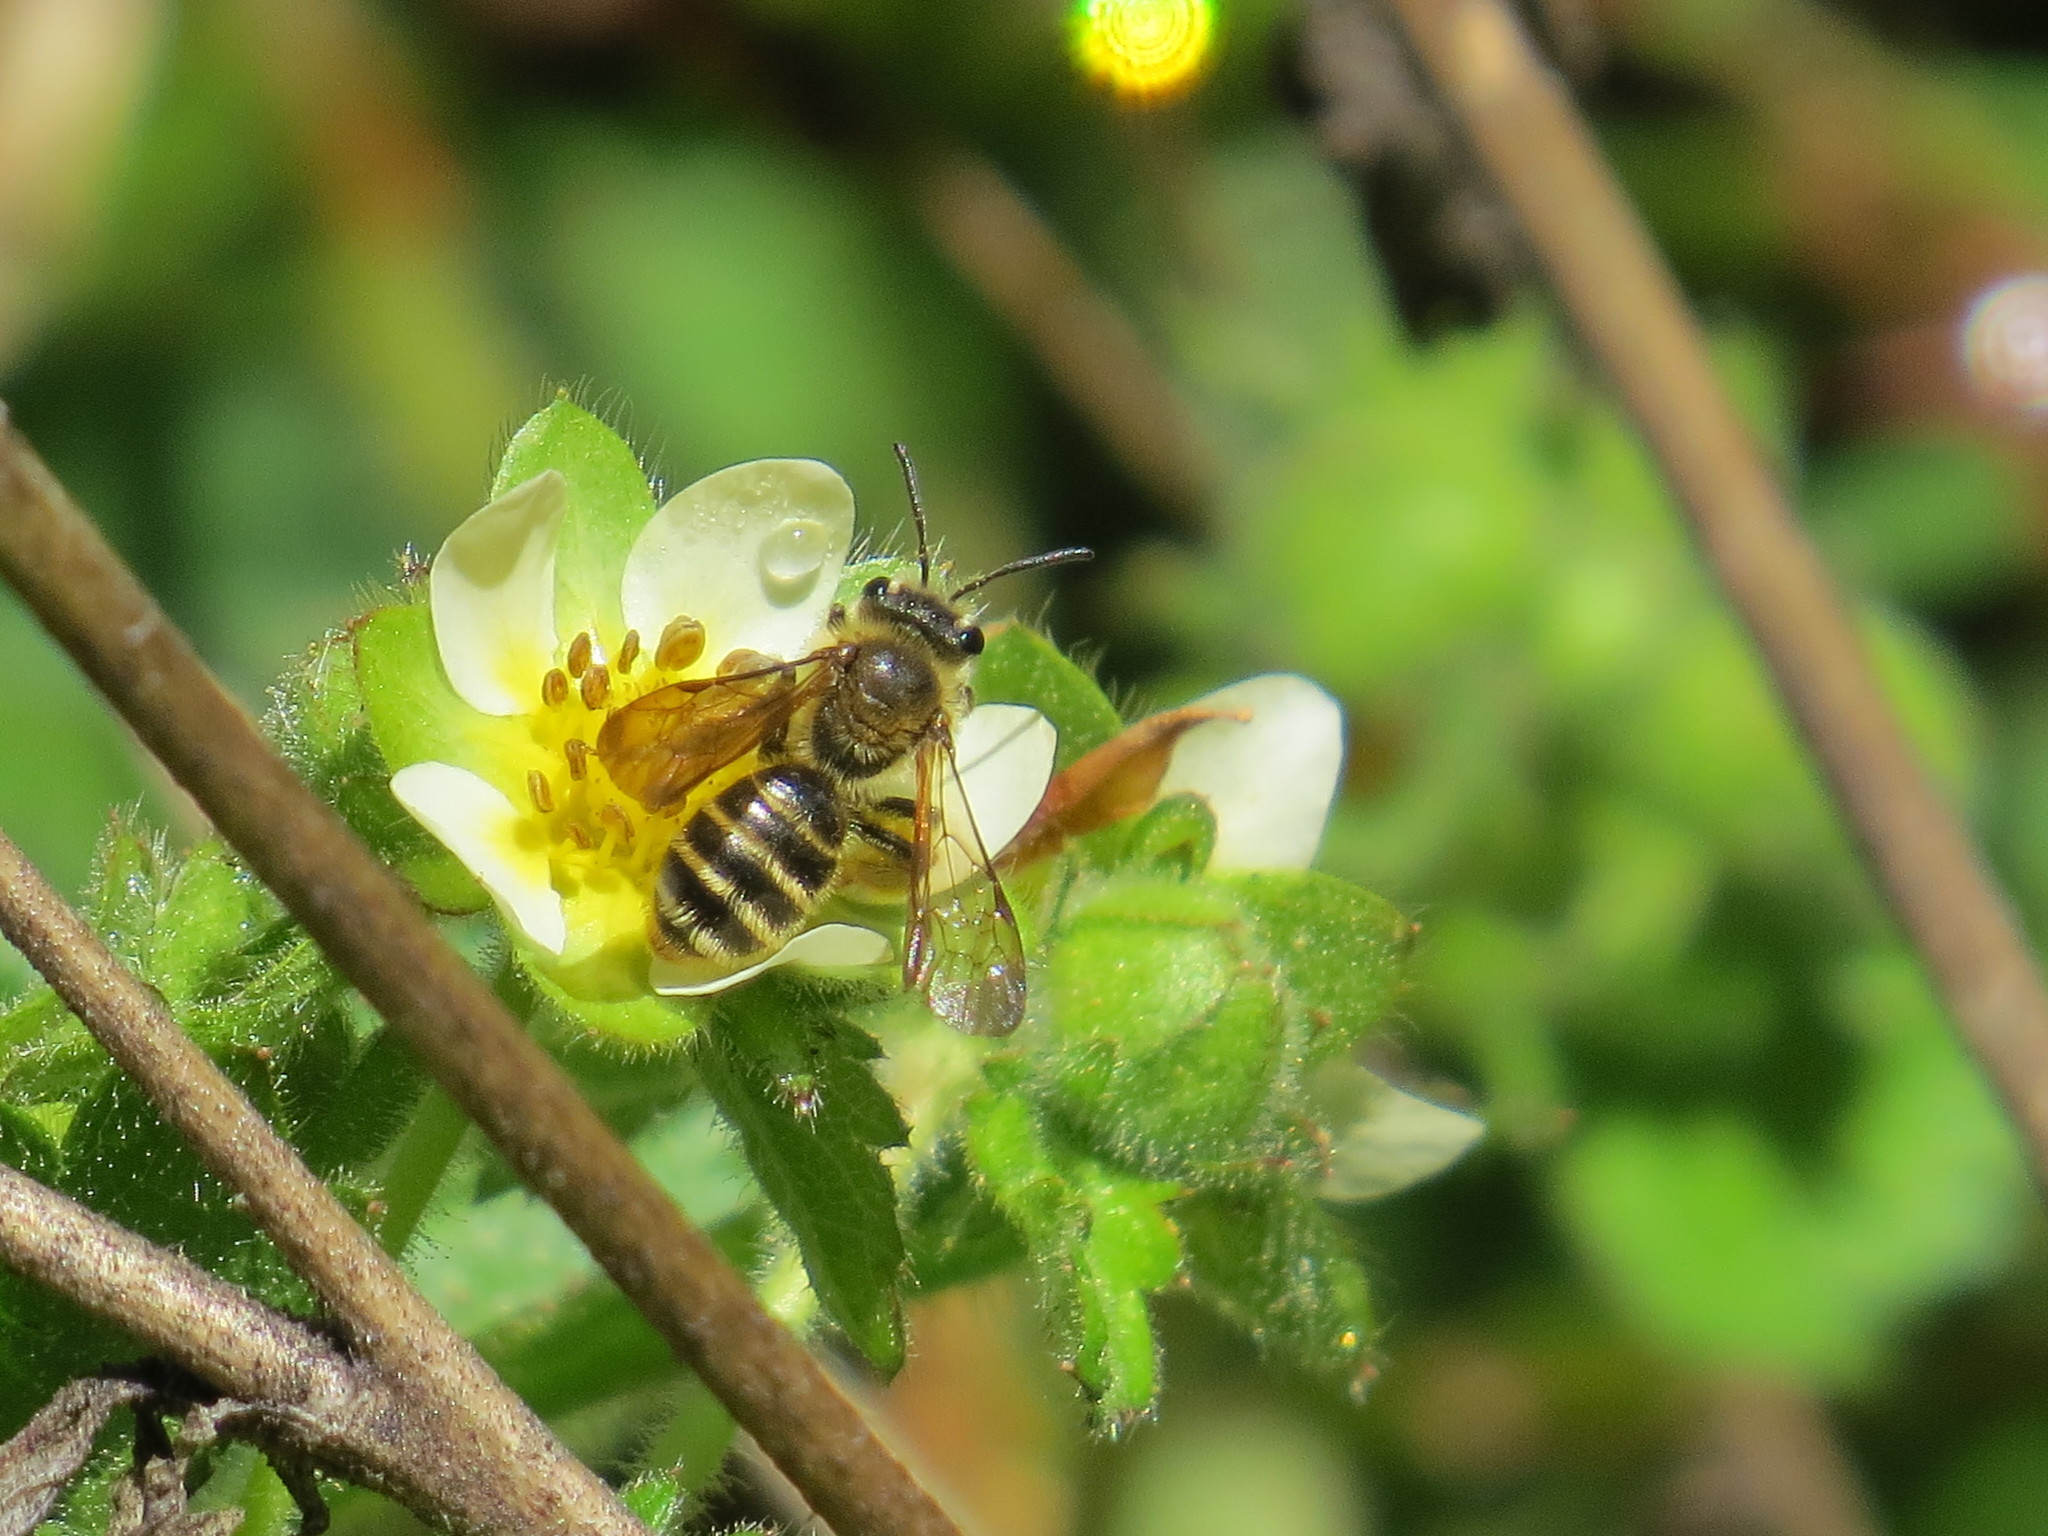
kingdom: Animalia
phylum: Arthropoda
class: Insecta
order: Hymenoptera
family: Andrenidae
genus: Andrena
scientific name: Andrena auricoma
